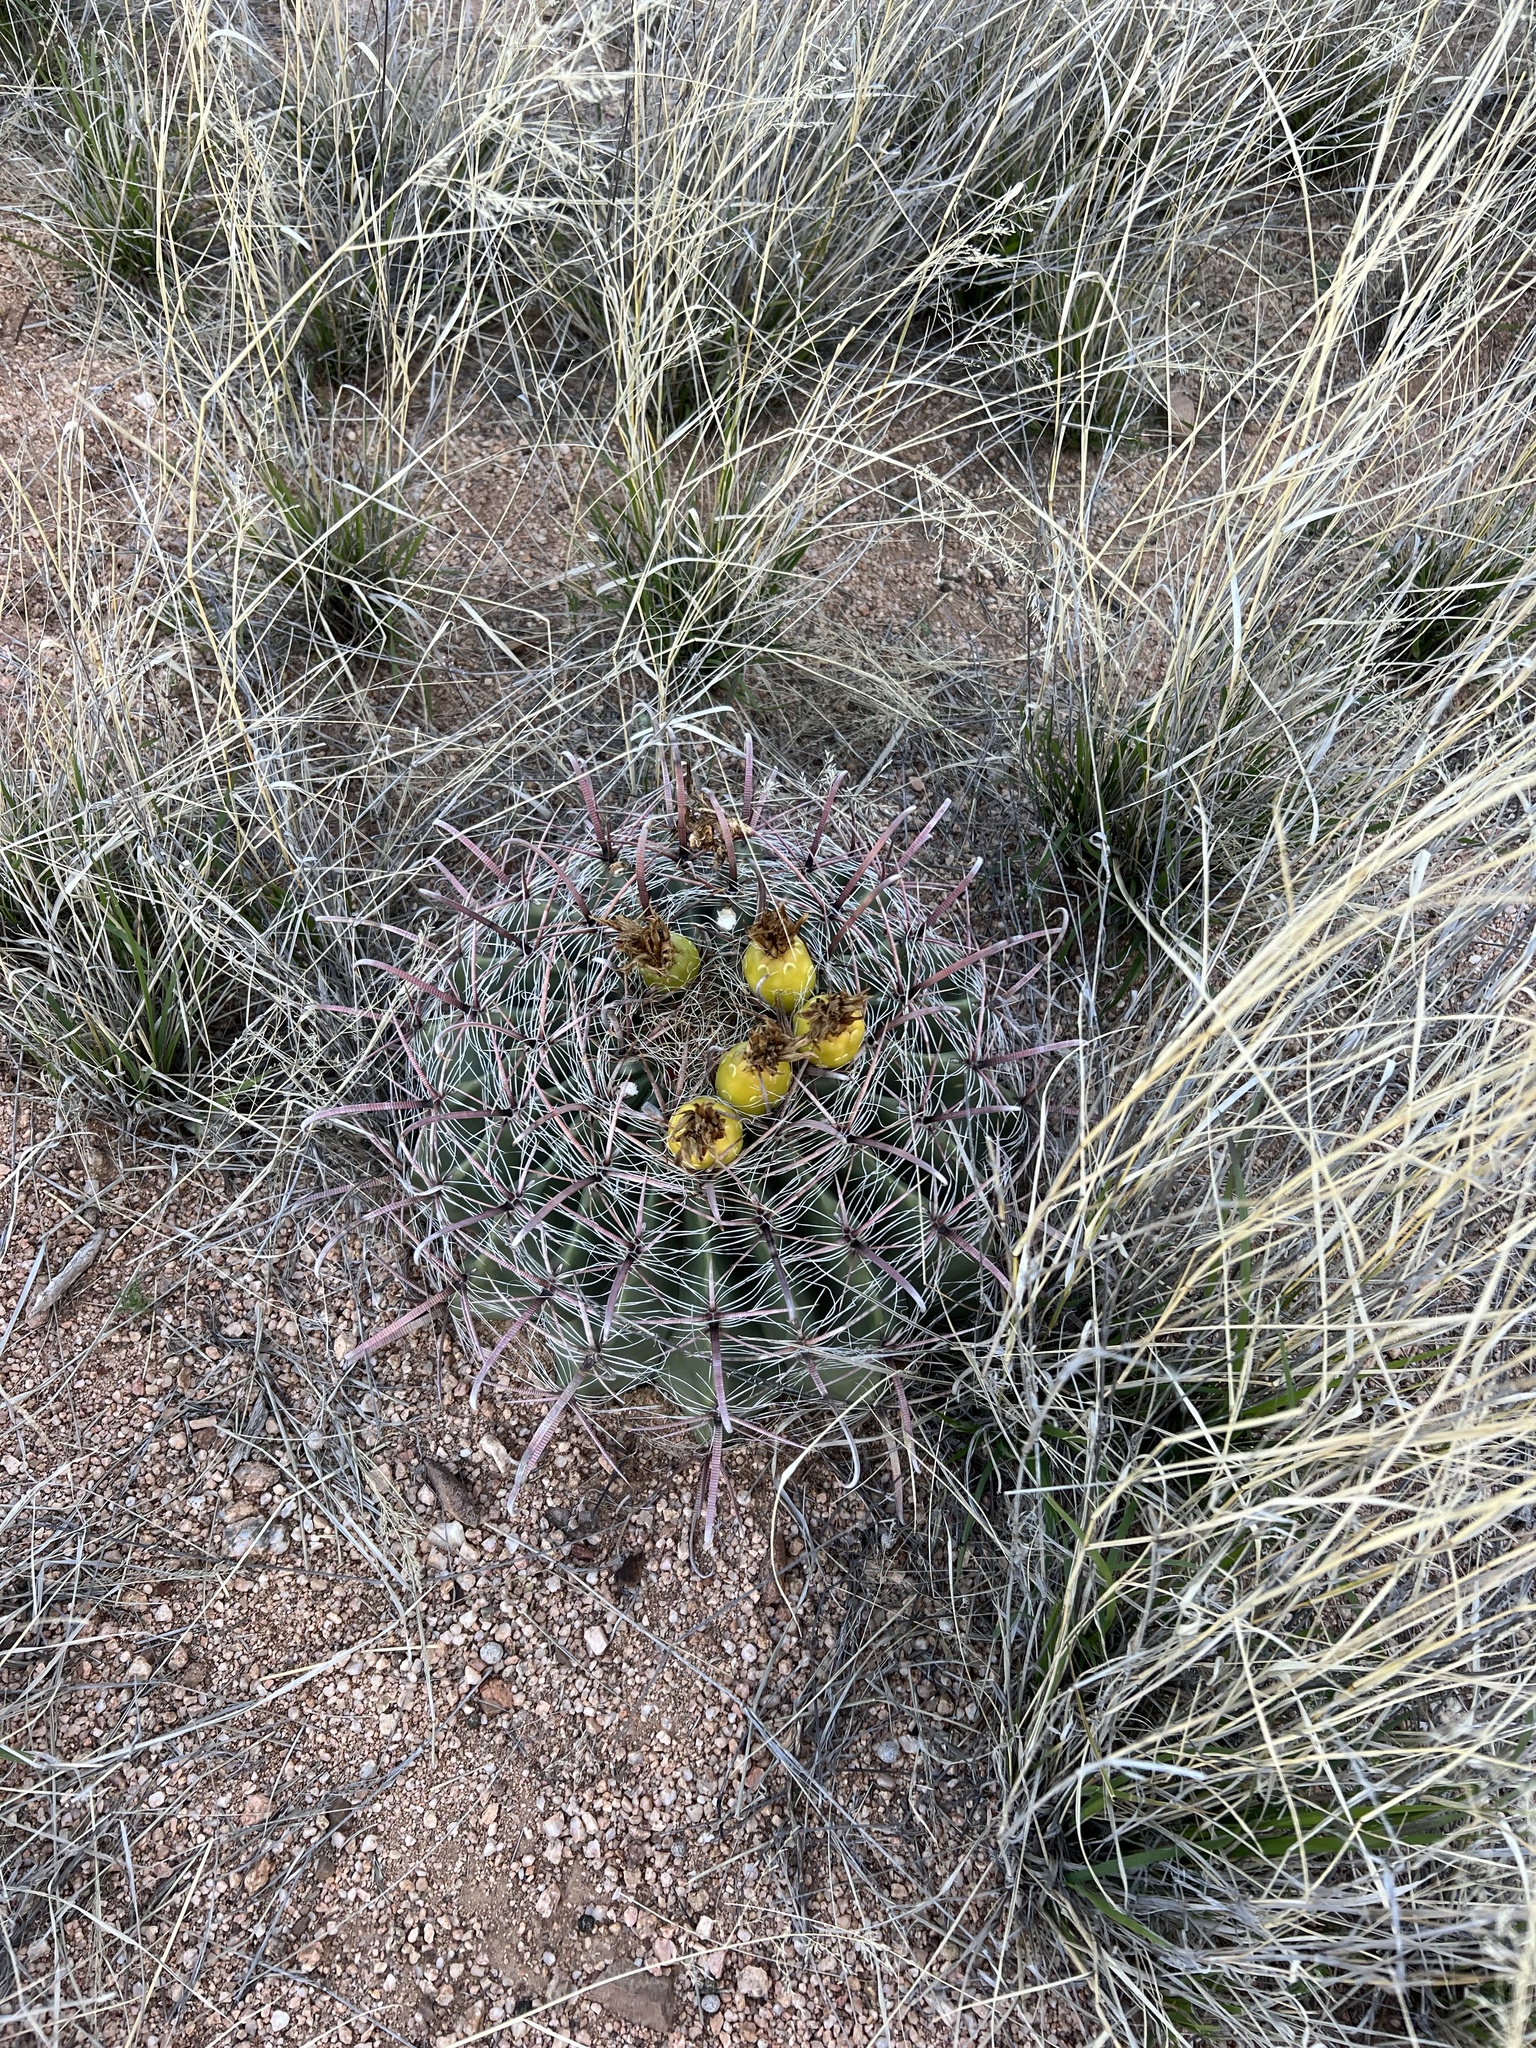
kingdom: Plantae
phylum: Tracheophyta
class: Magnoliopsida
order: Caryophyllales
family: Cactaceae
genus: Ferocactus
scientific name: Ferocactus wislizeni
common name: Candy barrel cactus
